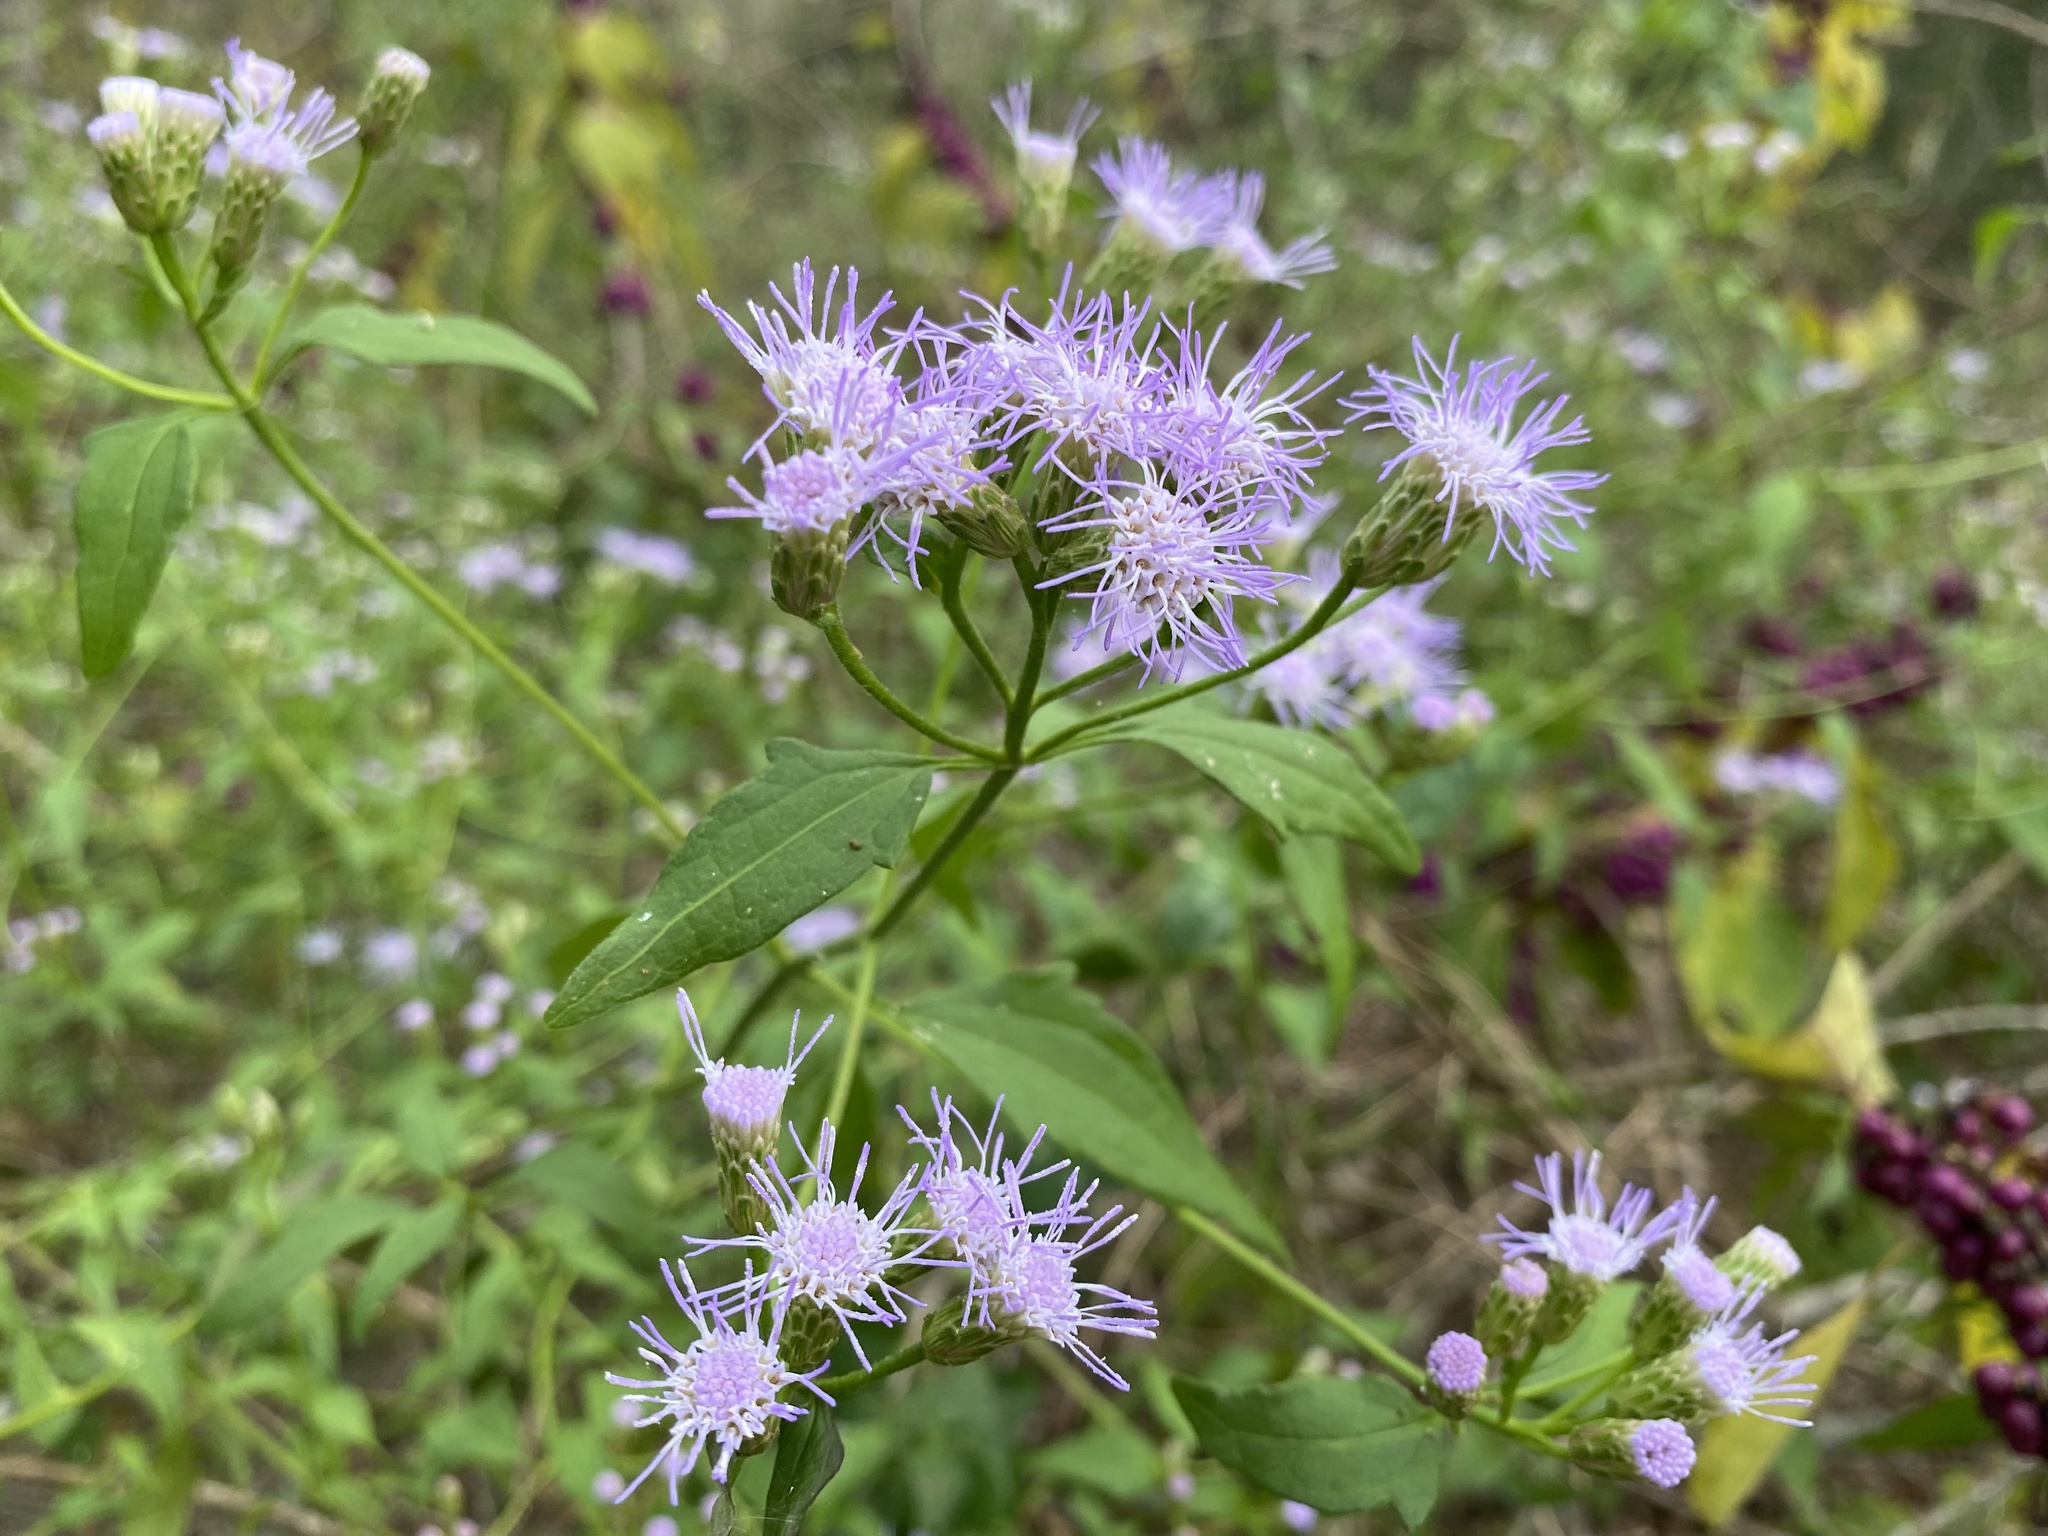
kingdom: Plantae
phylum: Tracheophyta
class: Magnoliopsida
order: Asterales
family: Asteraceae
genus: Chromolaena
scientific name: Chromolaena odorata
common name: Siamweed
